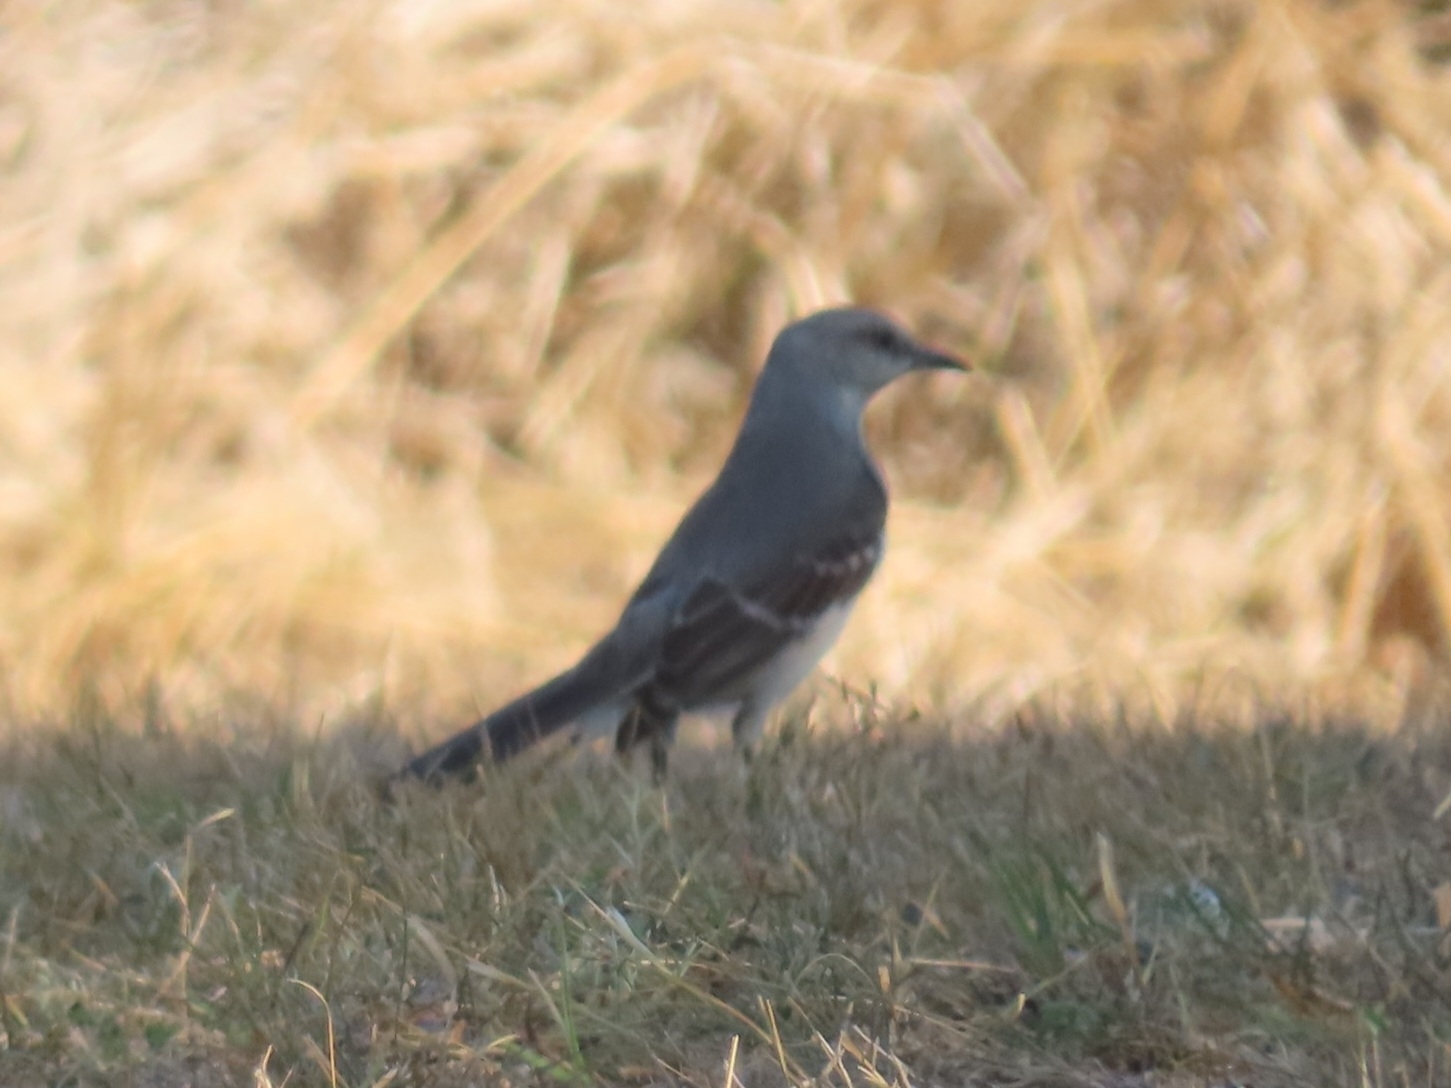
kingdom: Animalia
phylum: Chordata
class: Aves
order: Passeriformes
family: Mimidae
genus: Mimus
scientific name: Mimus polyglottos
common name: Northern mockingbird
